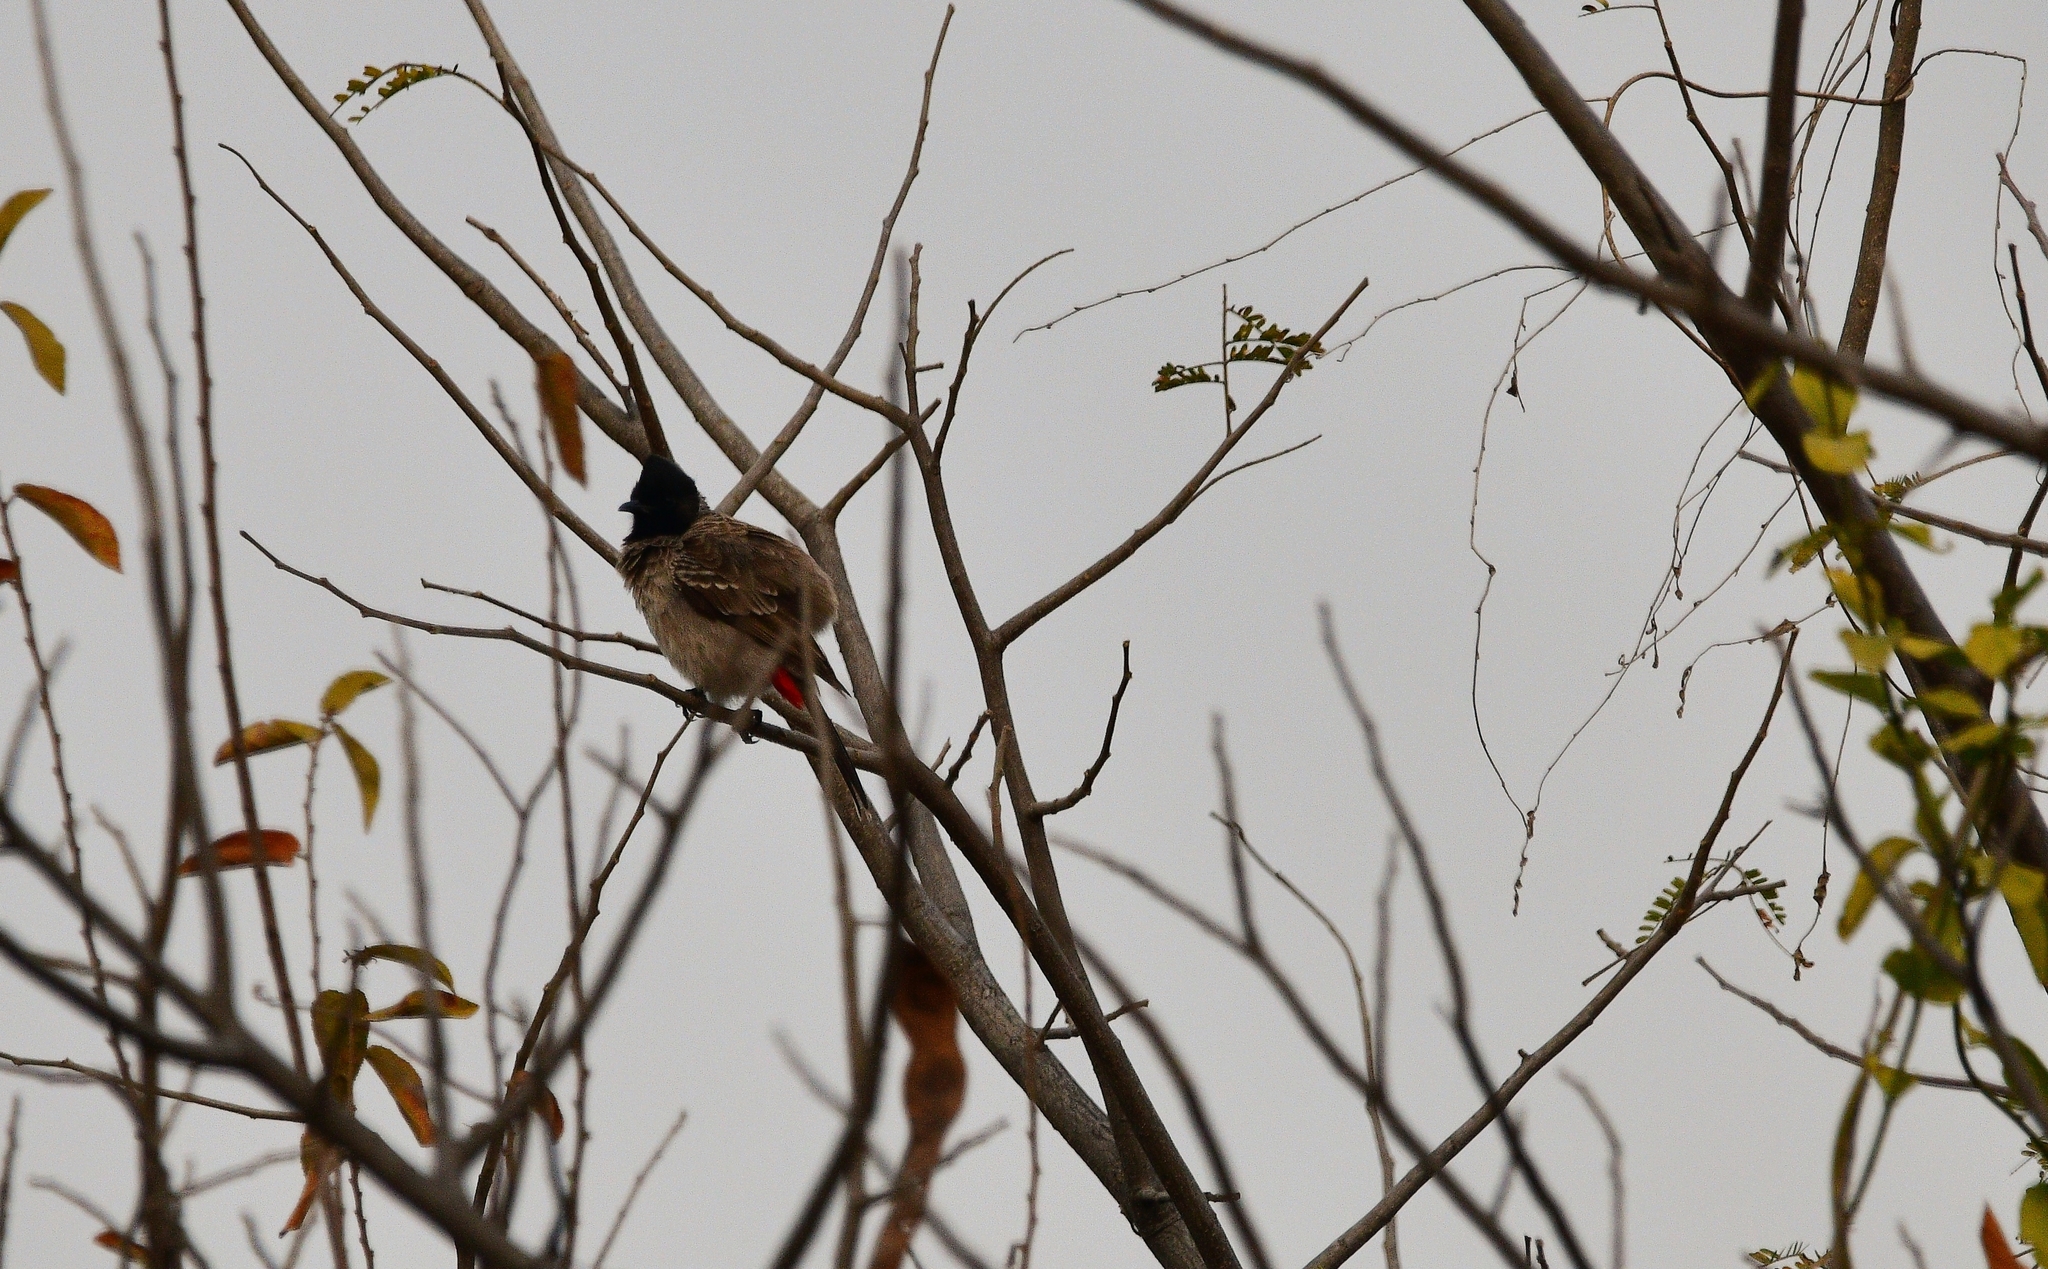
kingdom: Animalia
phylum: Chordata
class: Aves
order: Passeriformes
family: Pycnonotidae
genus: Pycnonotus
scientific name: Pycnonotus cafer
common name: Red-vented bulbul
